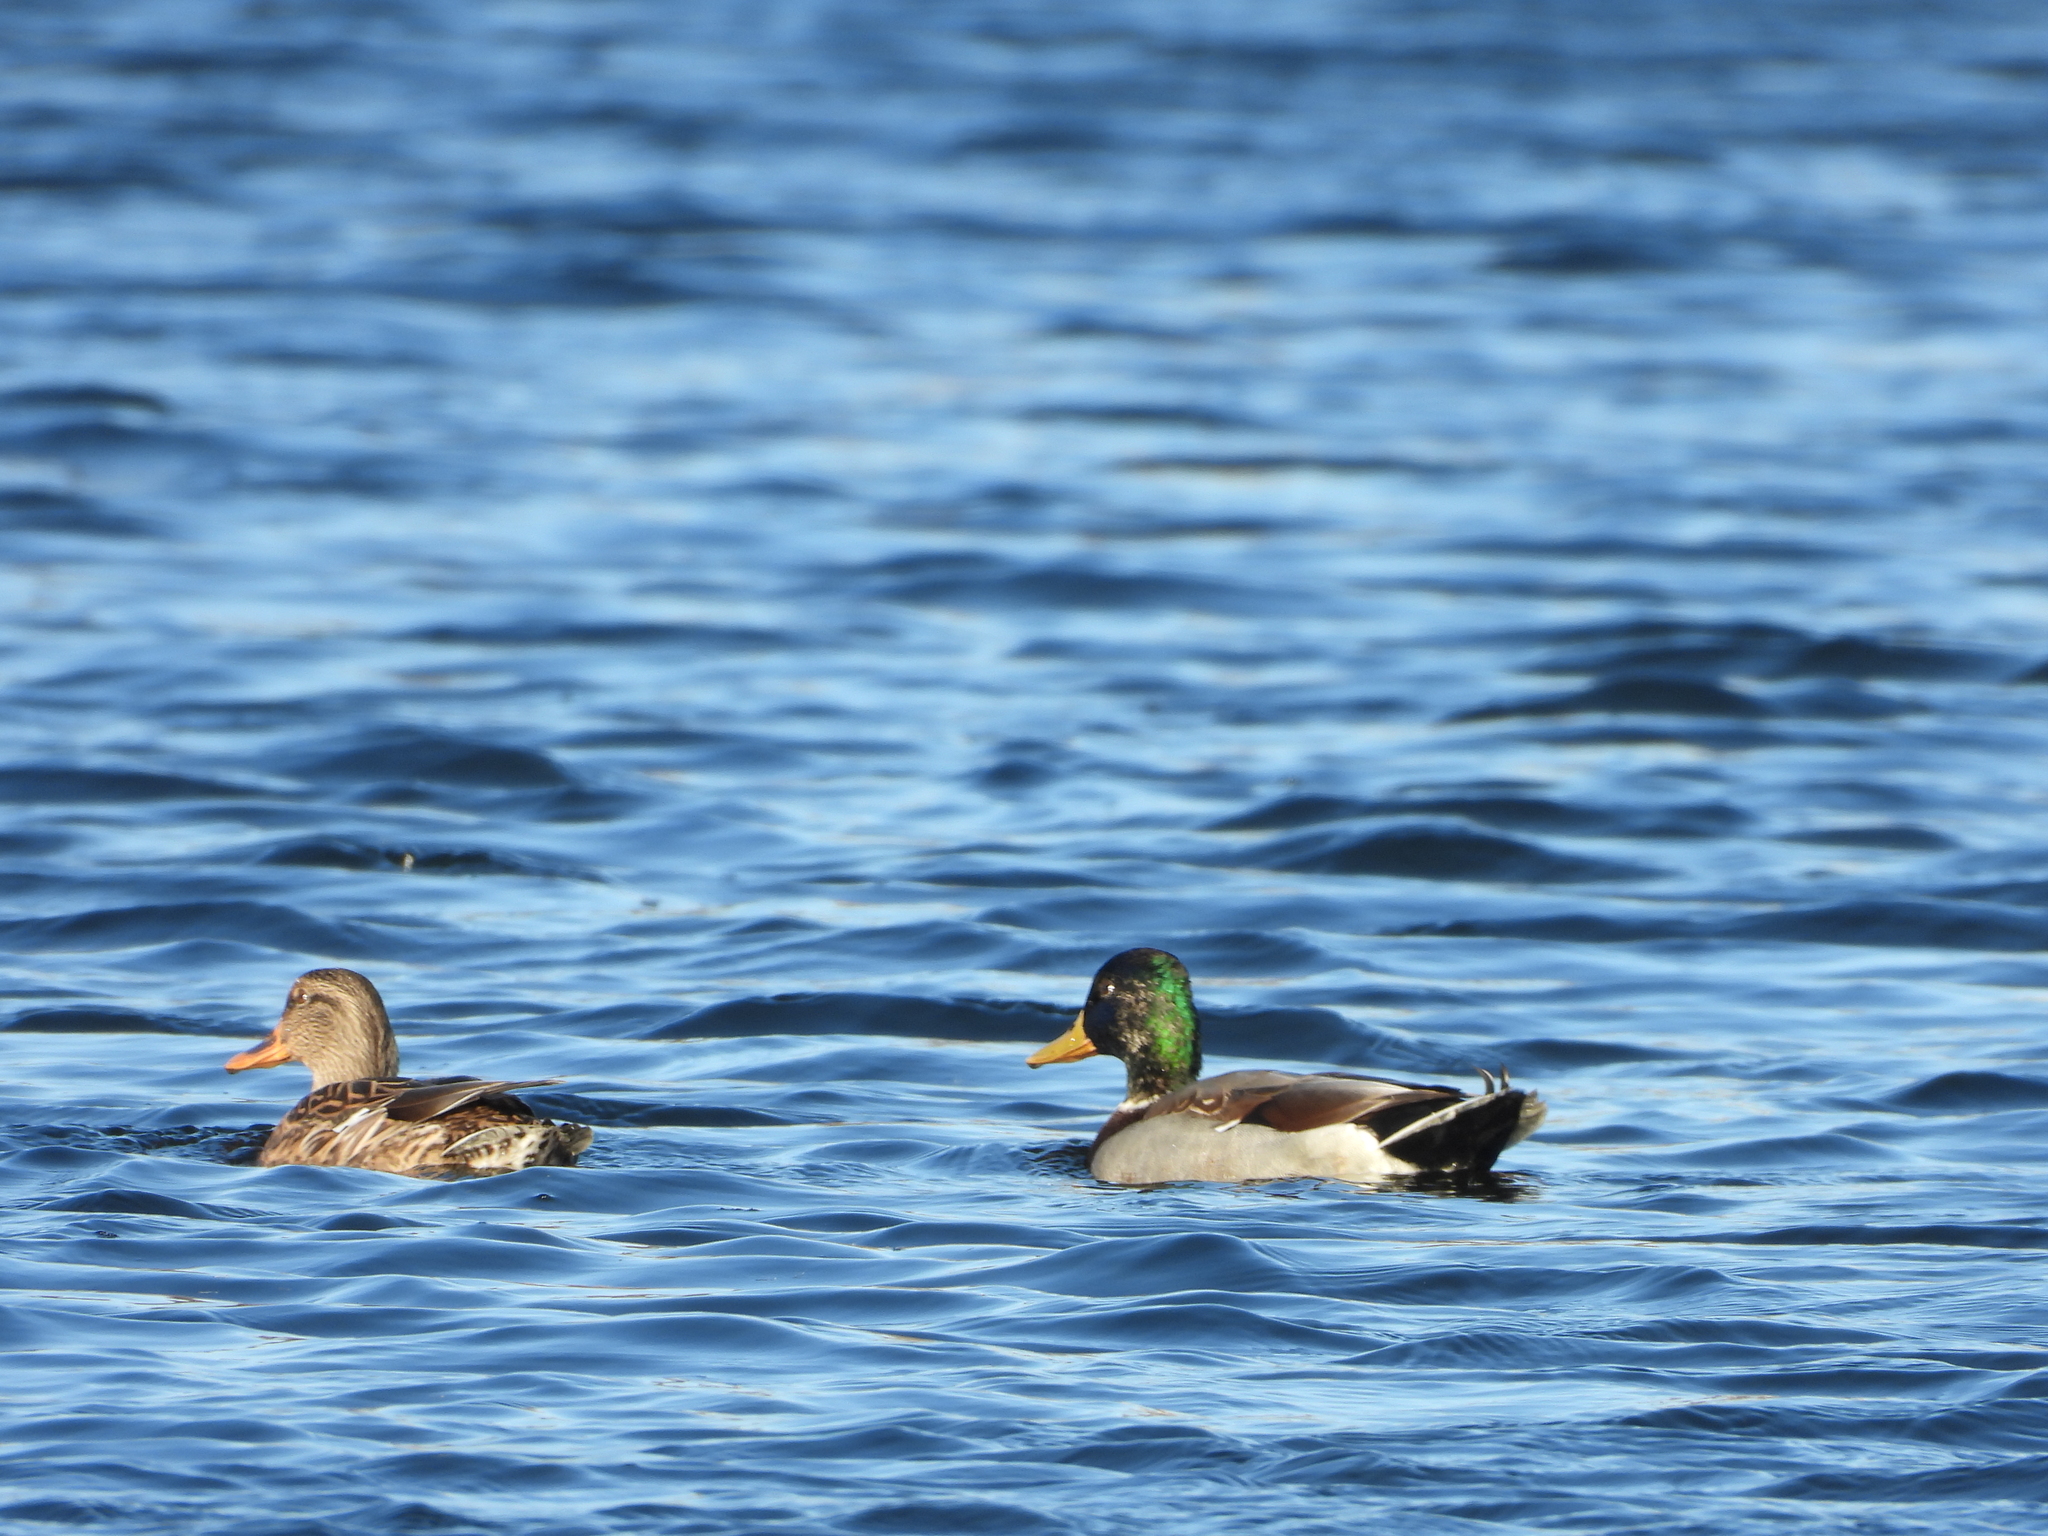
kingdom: Animalia
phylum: Chordata
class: Aves
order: Anseriformes
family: Anatidae
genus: Anas
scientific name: Anas platyrhynchos
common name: Mallard
